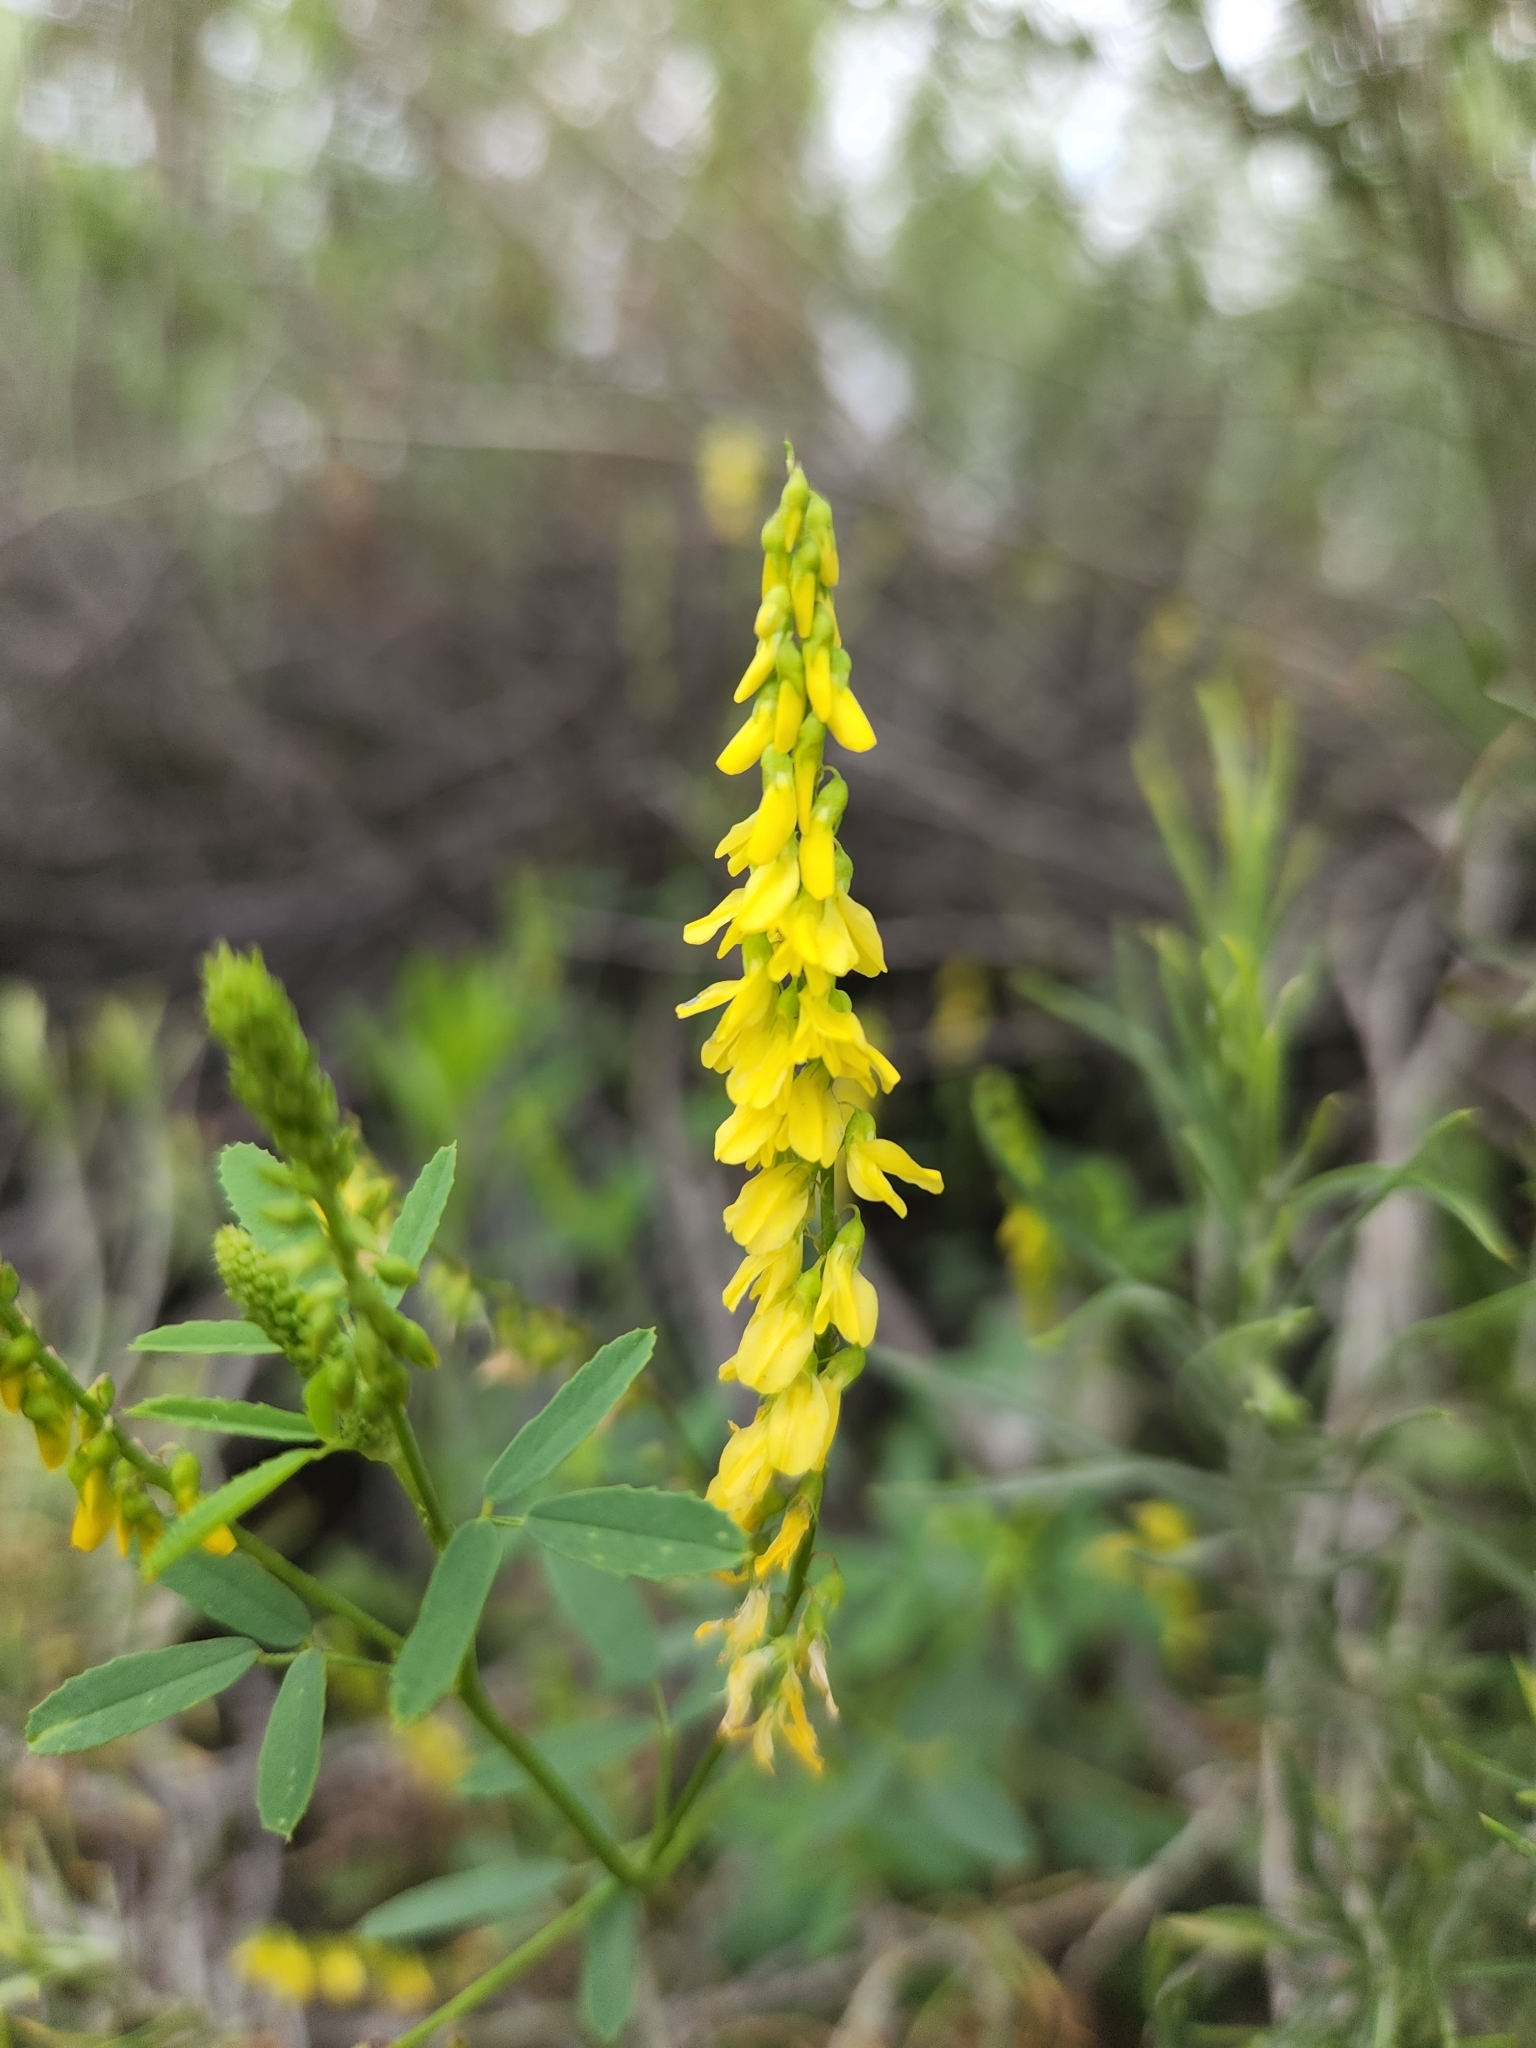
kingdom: Plantae
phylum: Tracheophyta
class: Magnoliopsida
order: Fabales
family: Fabaceae
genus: Melilotus
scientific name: Melilotus officinalis
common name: Sweetclover
